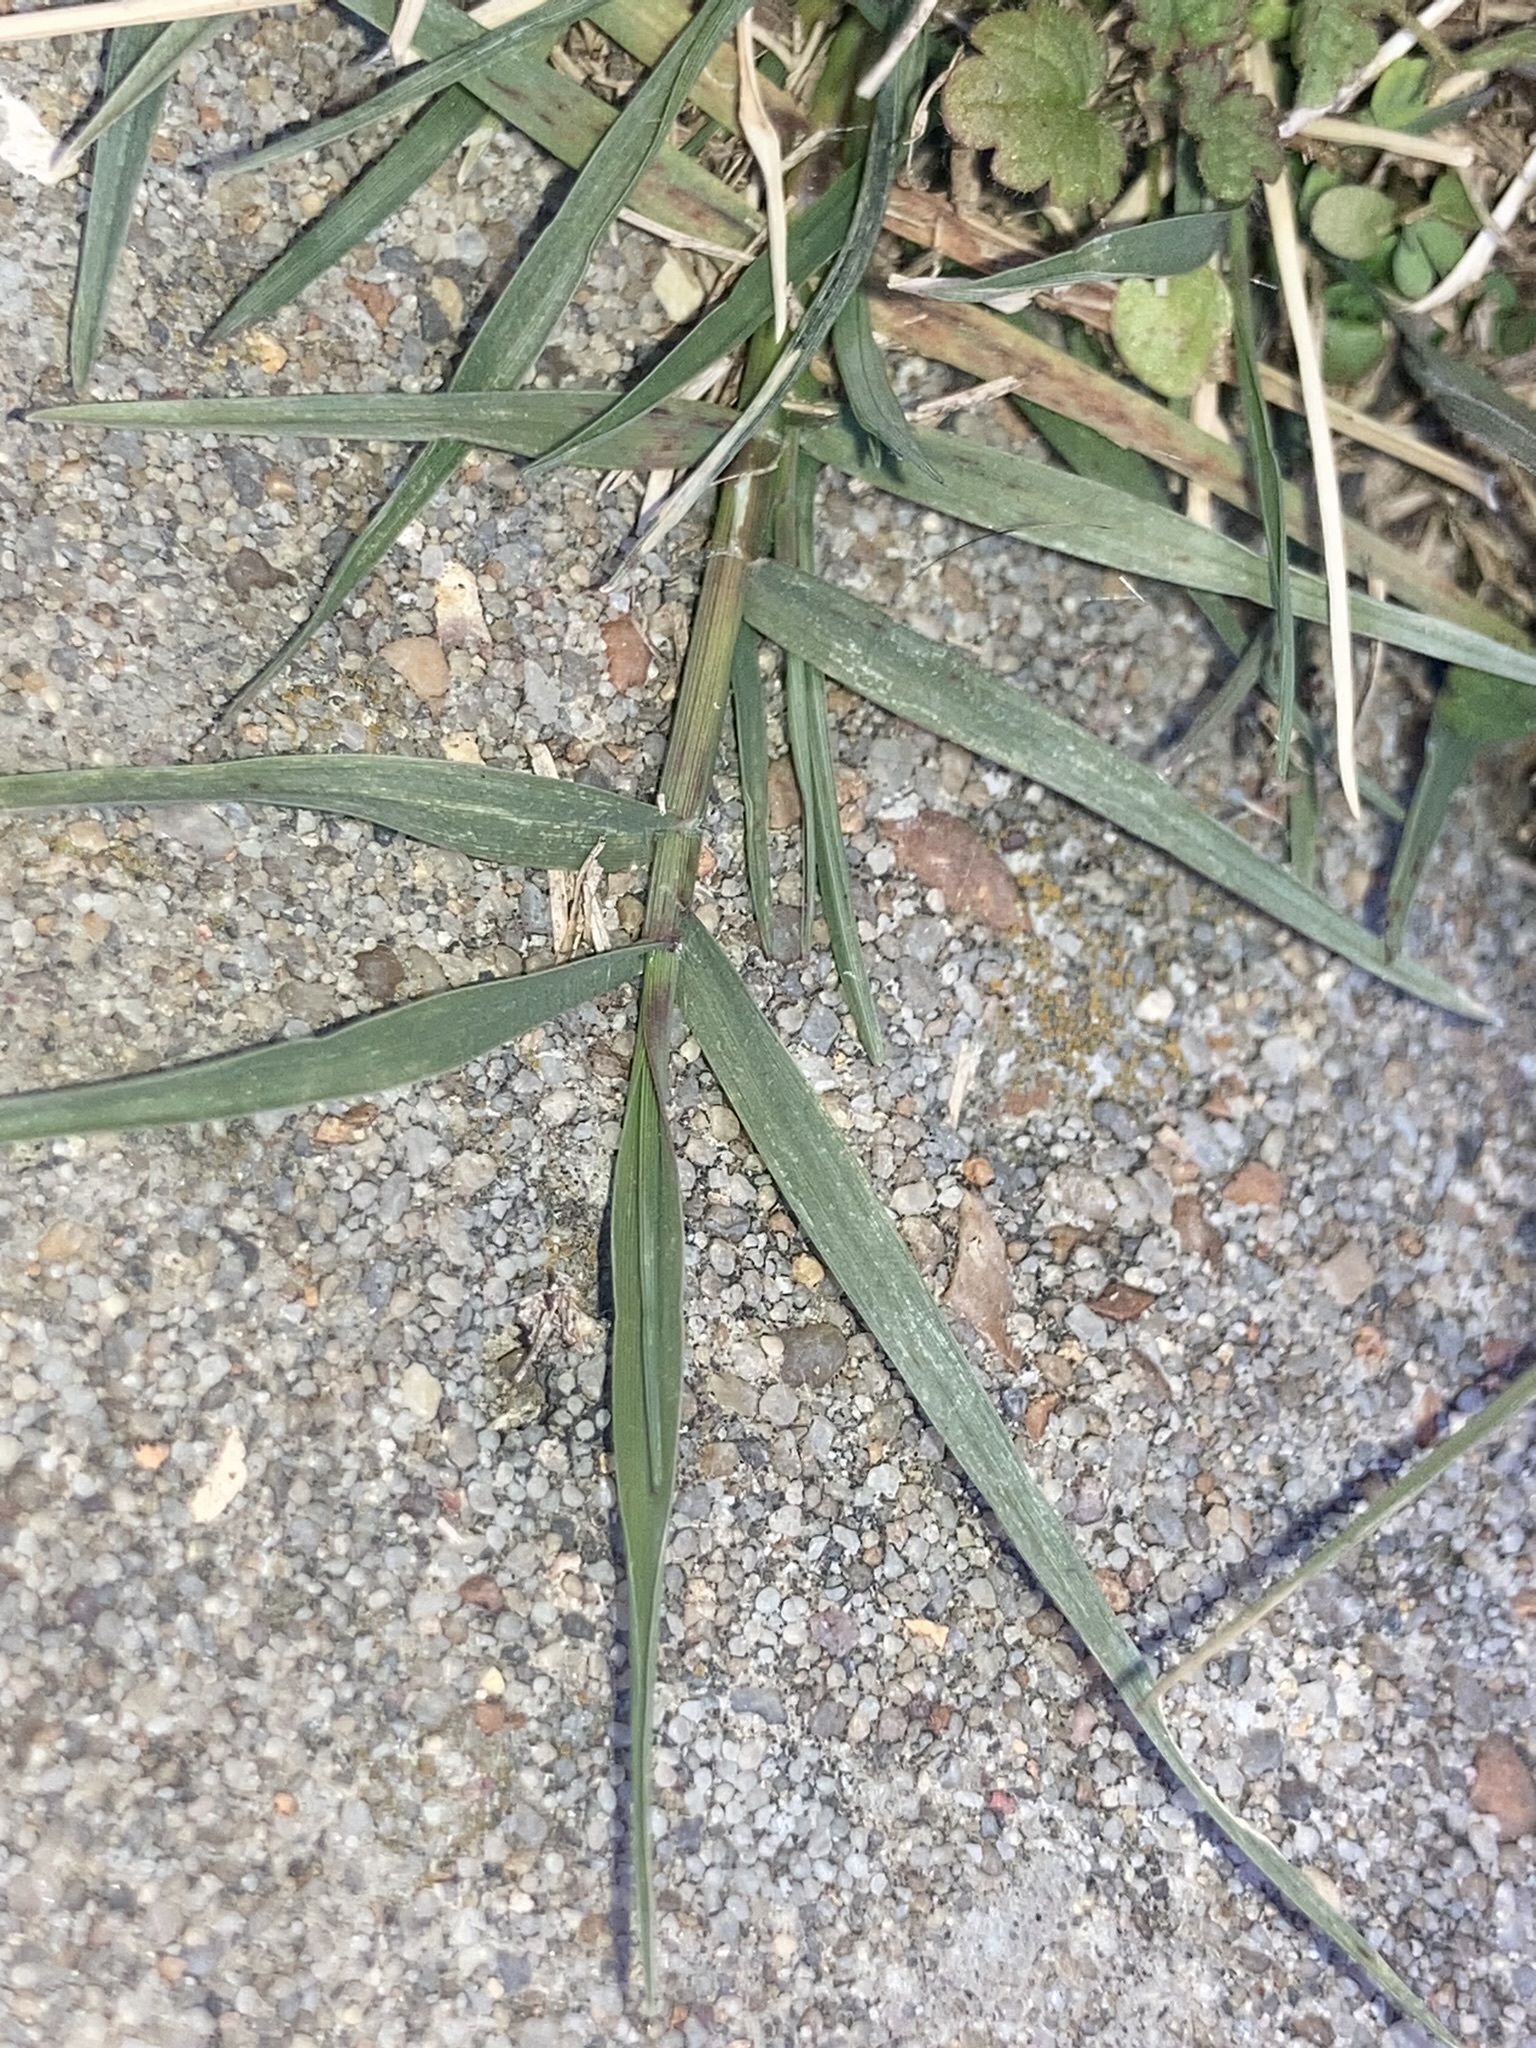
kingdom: Plantae
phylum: Tracheophyta
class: Liliopsida
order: Poales
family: Poaceae
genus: Cynodon
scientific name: Cynodon dactylon
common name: Bermuda grass
